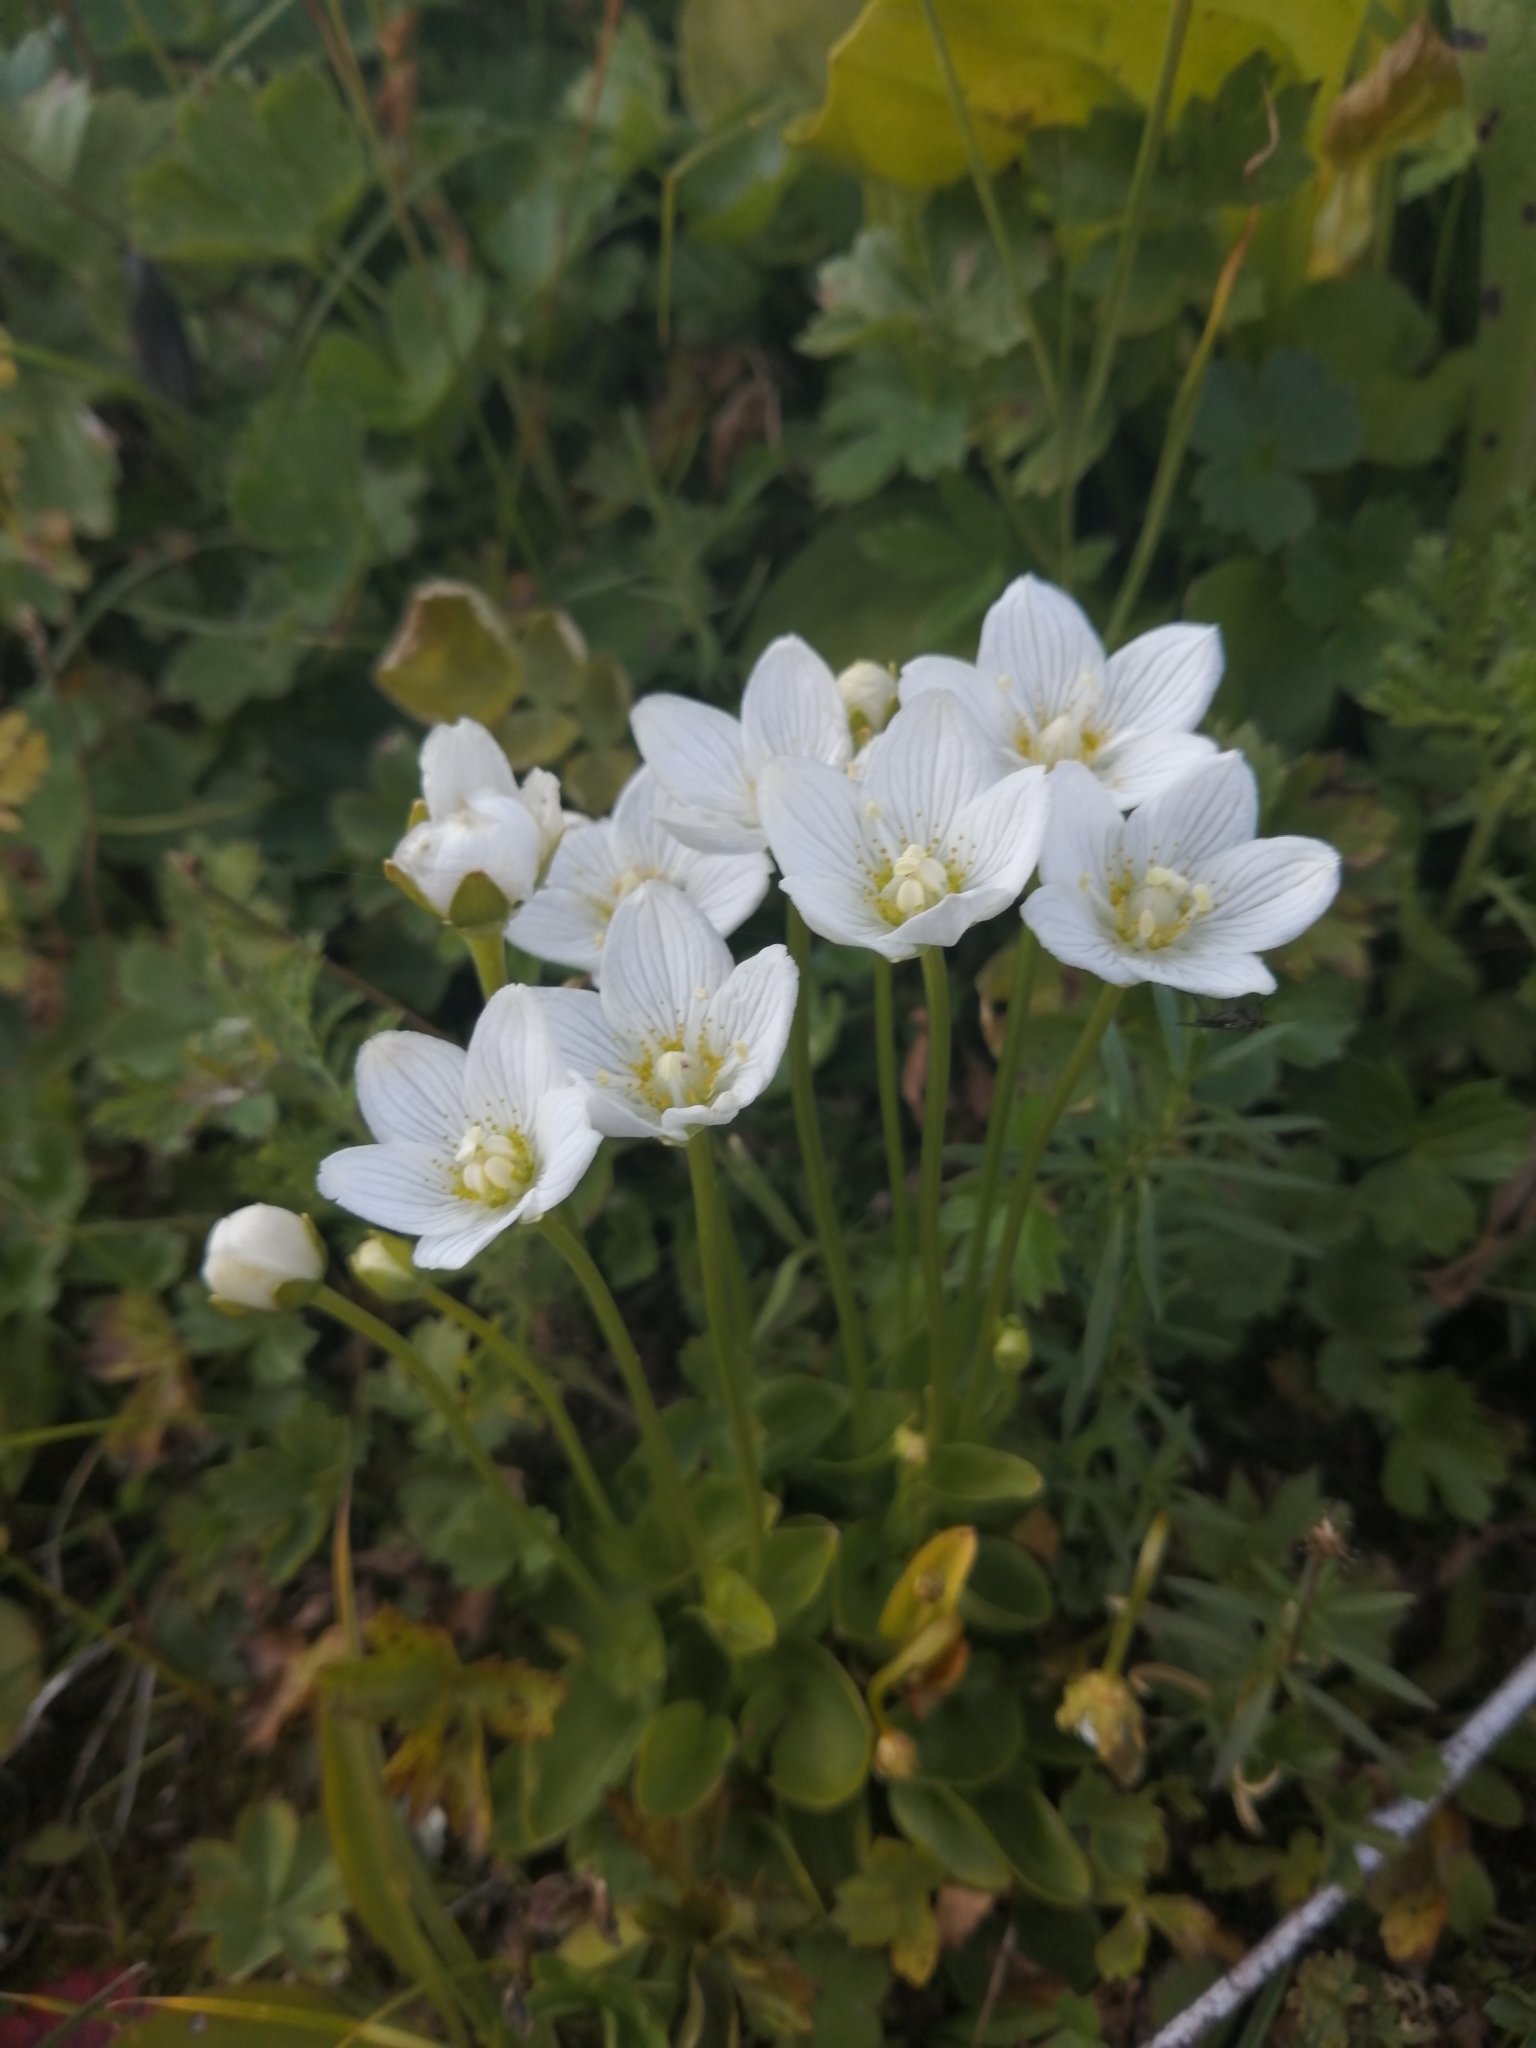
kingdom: Plantae
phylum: Tracheophyta
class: Magnoliopsida
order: Celastrales
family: Parnassiaceae
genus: Parnassia
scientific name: Parnassia palustris
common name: Grass-of-parnassus
